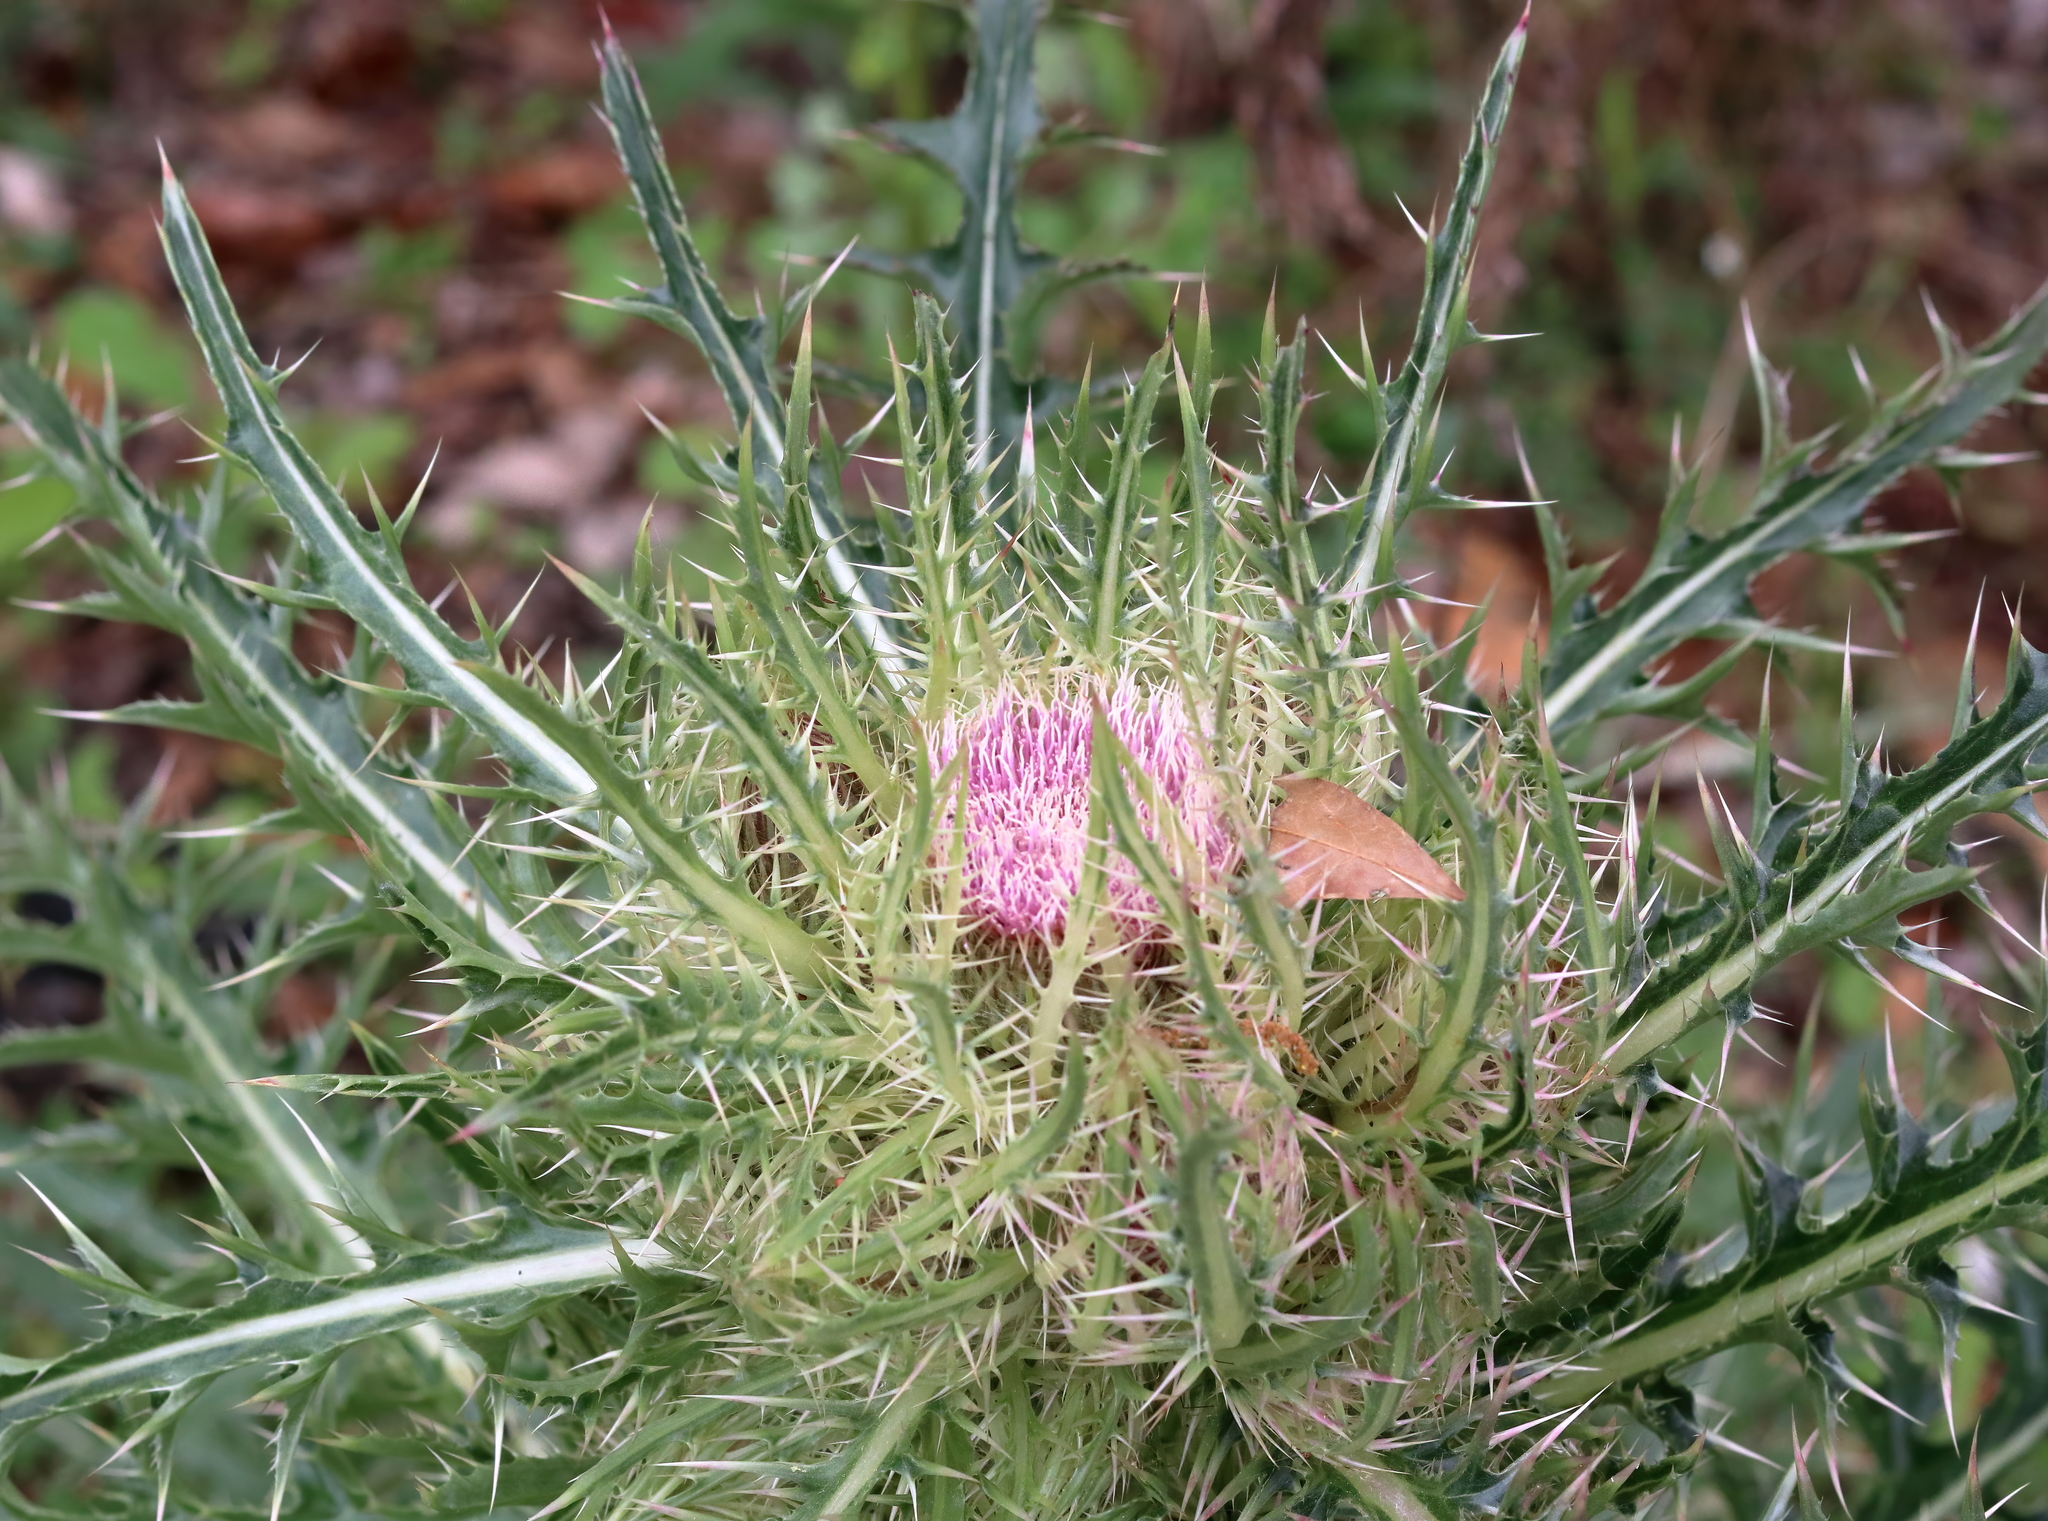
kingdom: Plantae
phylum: Tracheophyta
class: Magnoliopsida
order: Asterales
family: Asteraceae
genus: Cirsium
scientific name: Cirsium horridulum
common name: Bristly thistle
